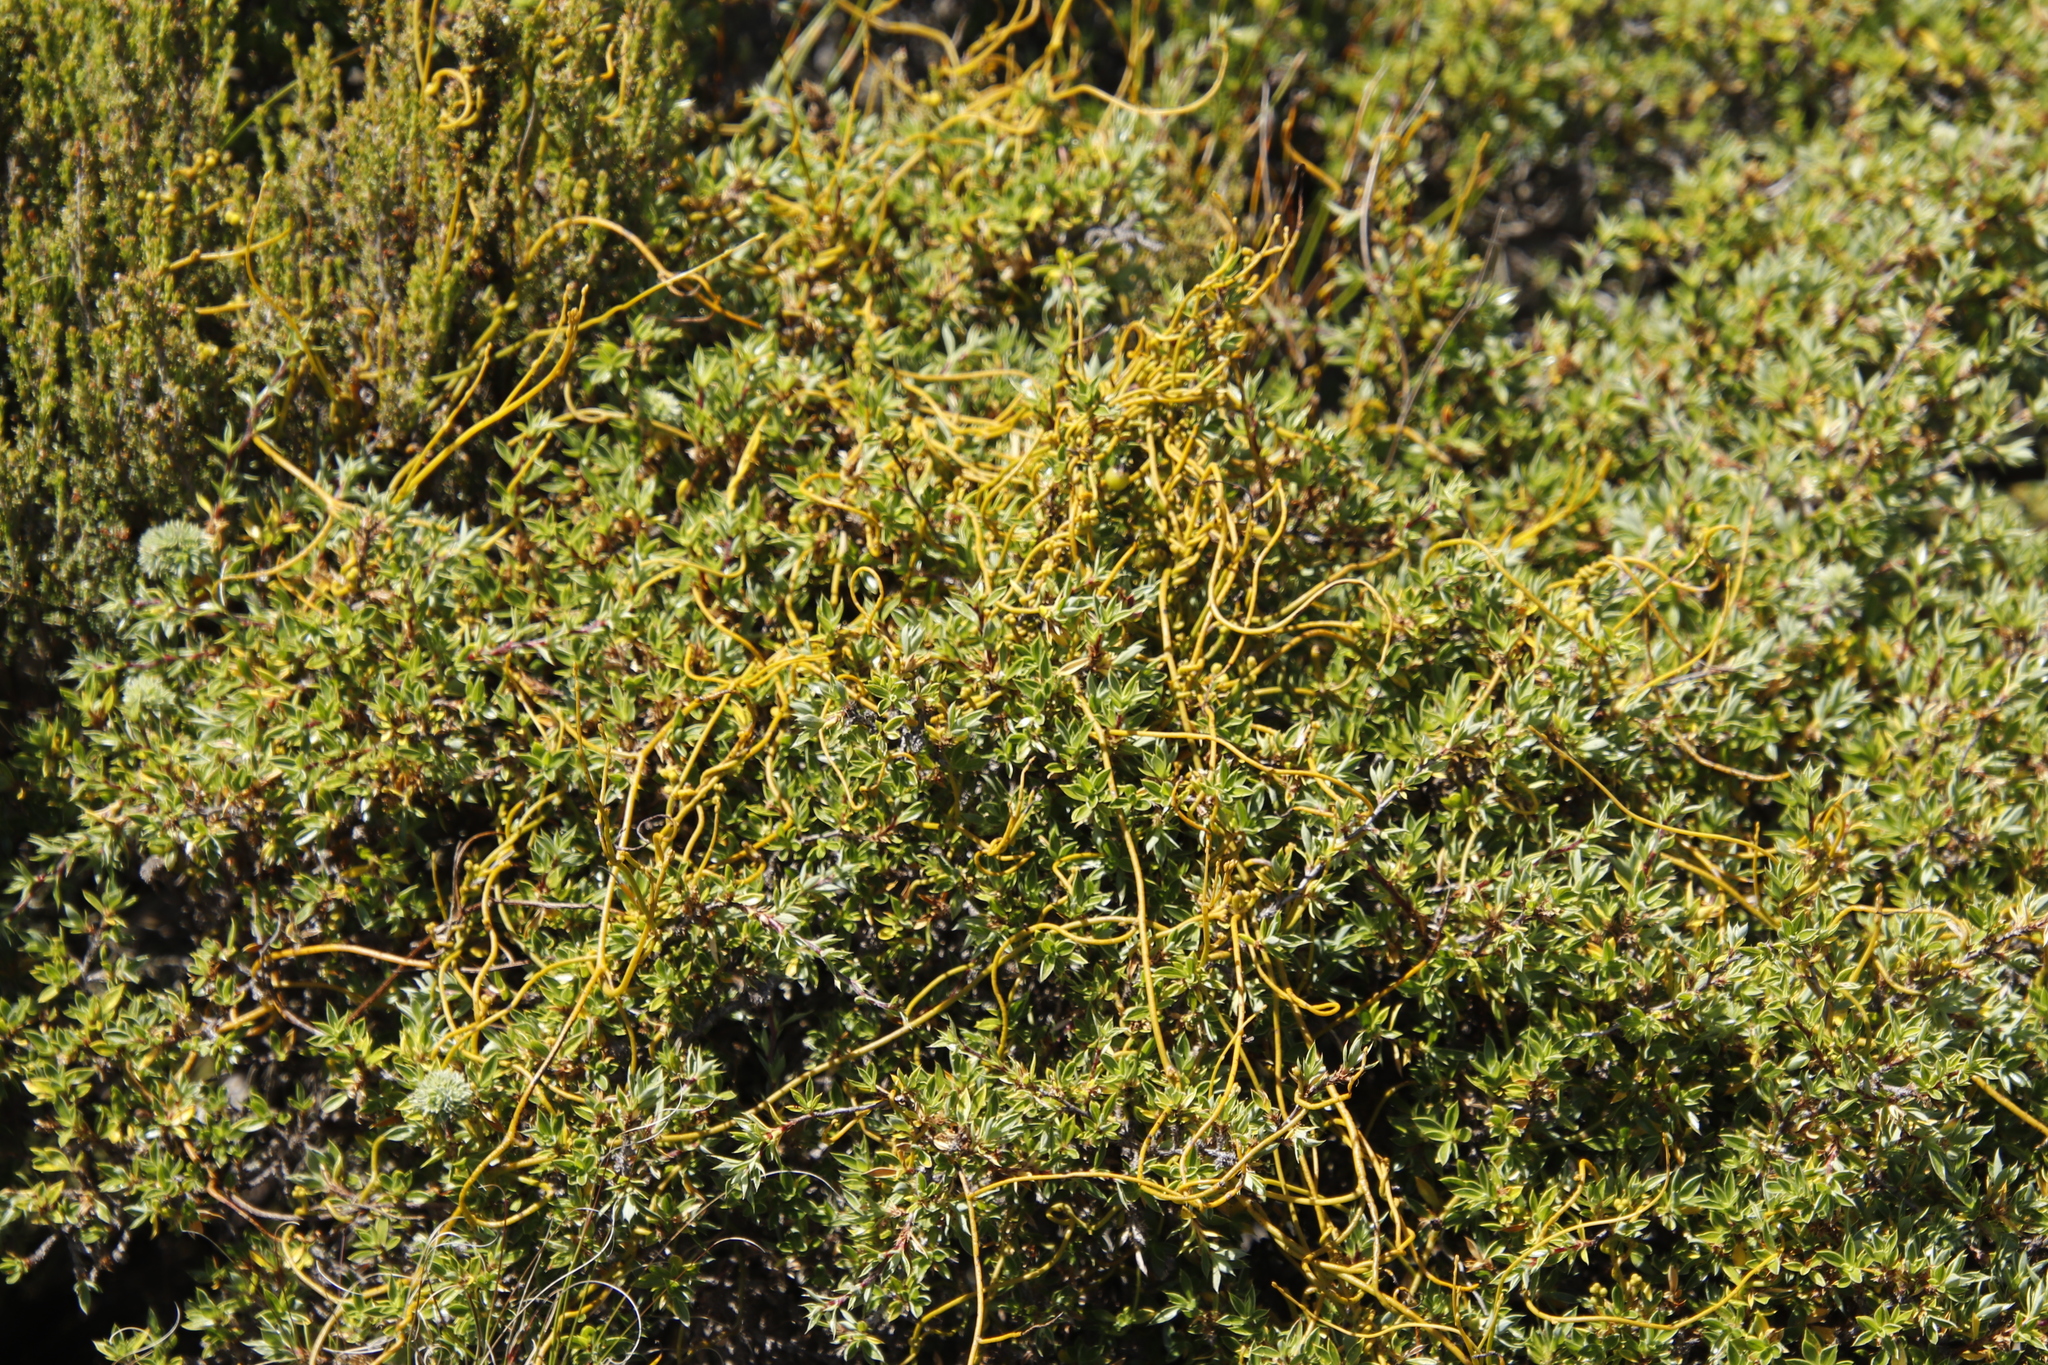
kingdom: Plantae
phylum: Tracheophyta
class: Magnoliopsida
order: Laurales
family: Lauraceae
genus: Cassytha
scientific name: Cassytha ciliolata
